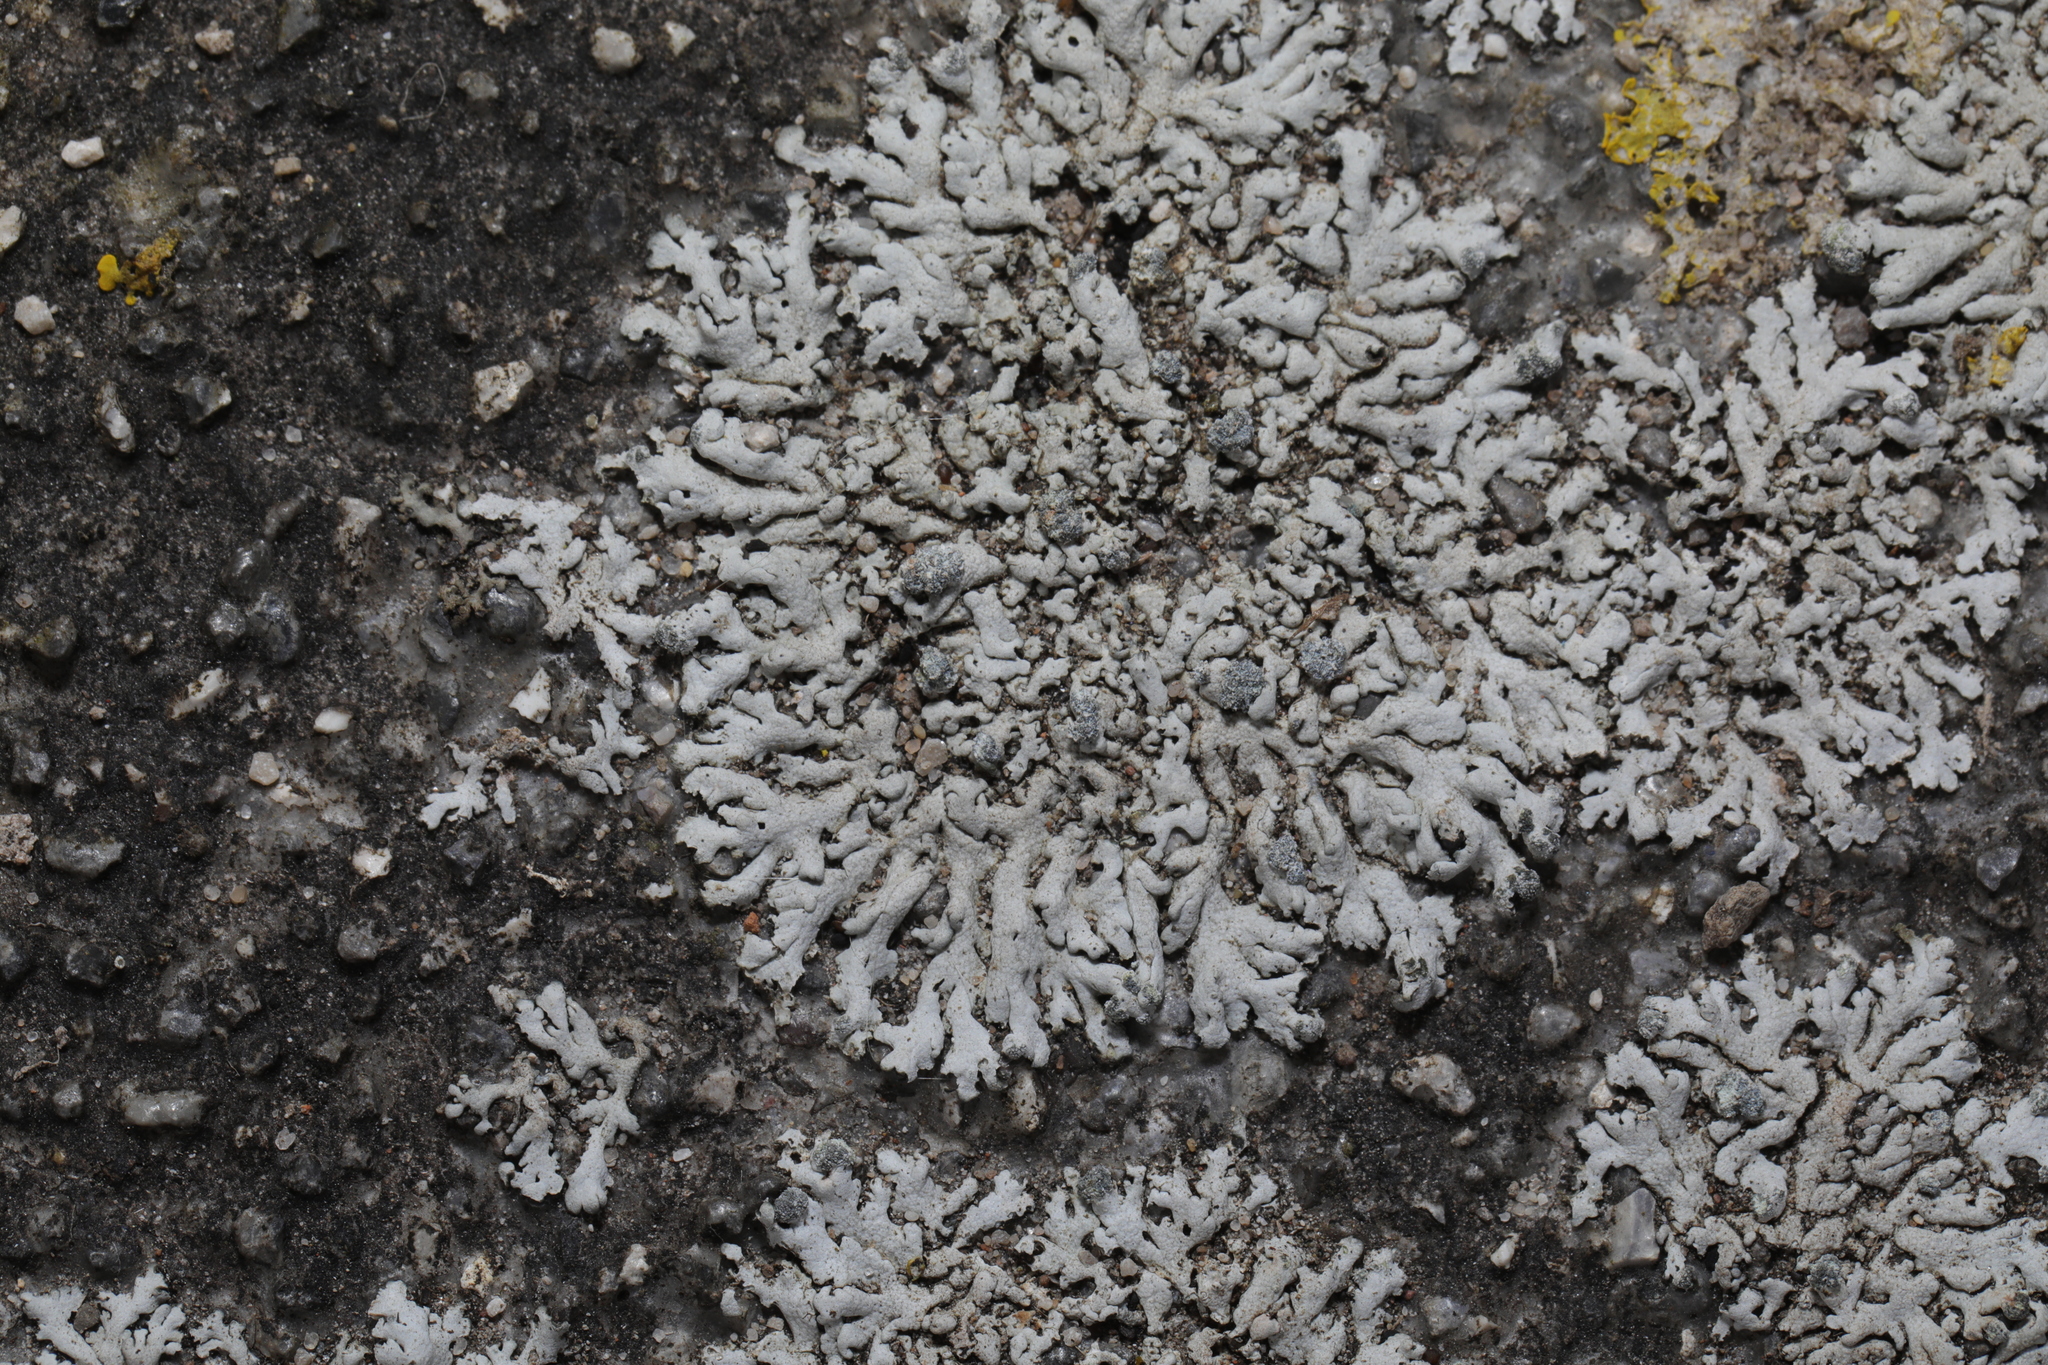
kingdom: Fungi
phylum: Ascomycota
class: Lecanoromycetes
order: Caliciales
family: Physciaceae
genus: Physcia
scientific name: Physcia caesia
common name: Blue-gray rosette lichen
